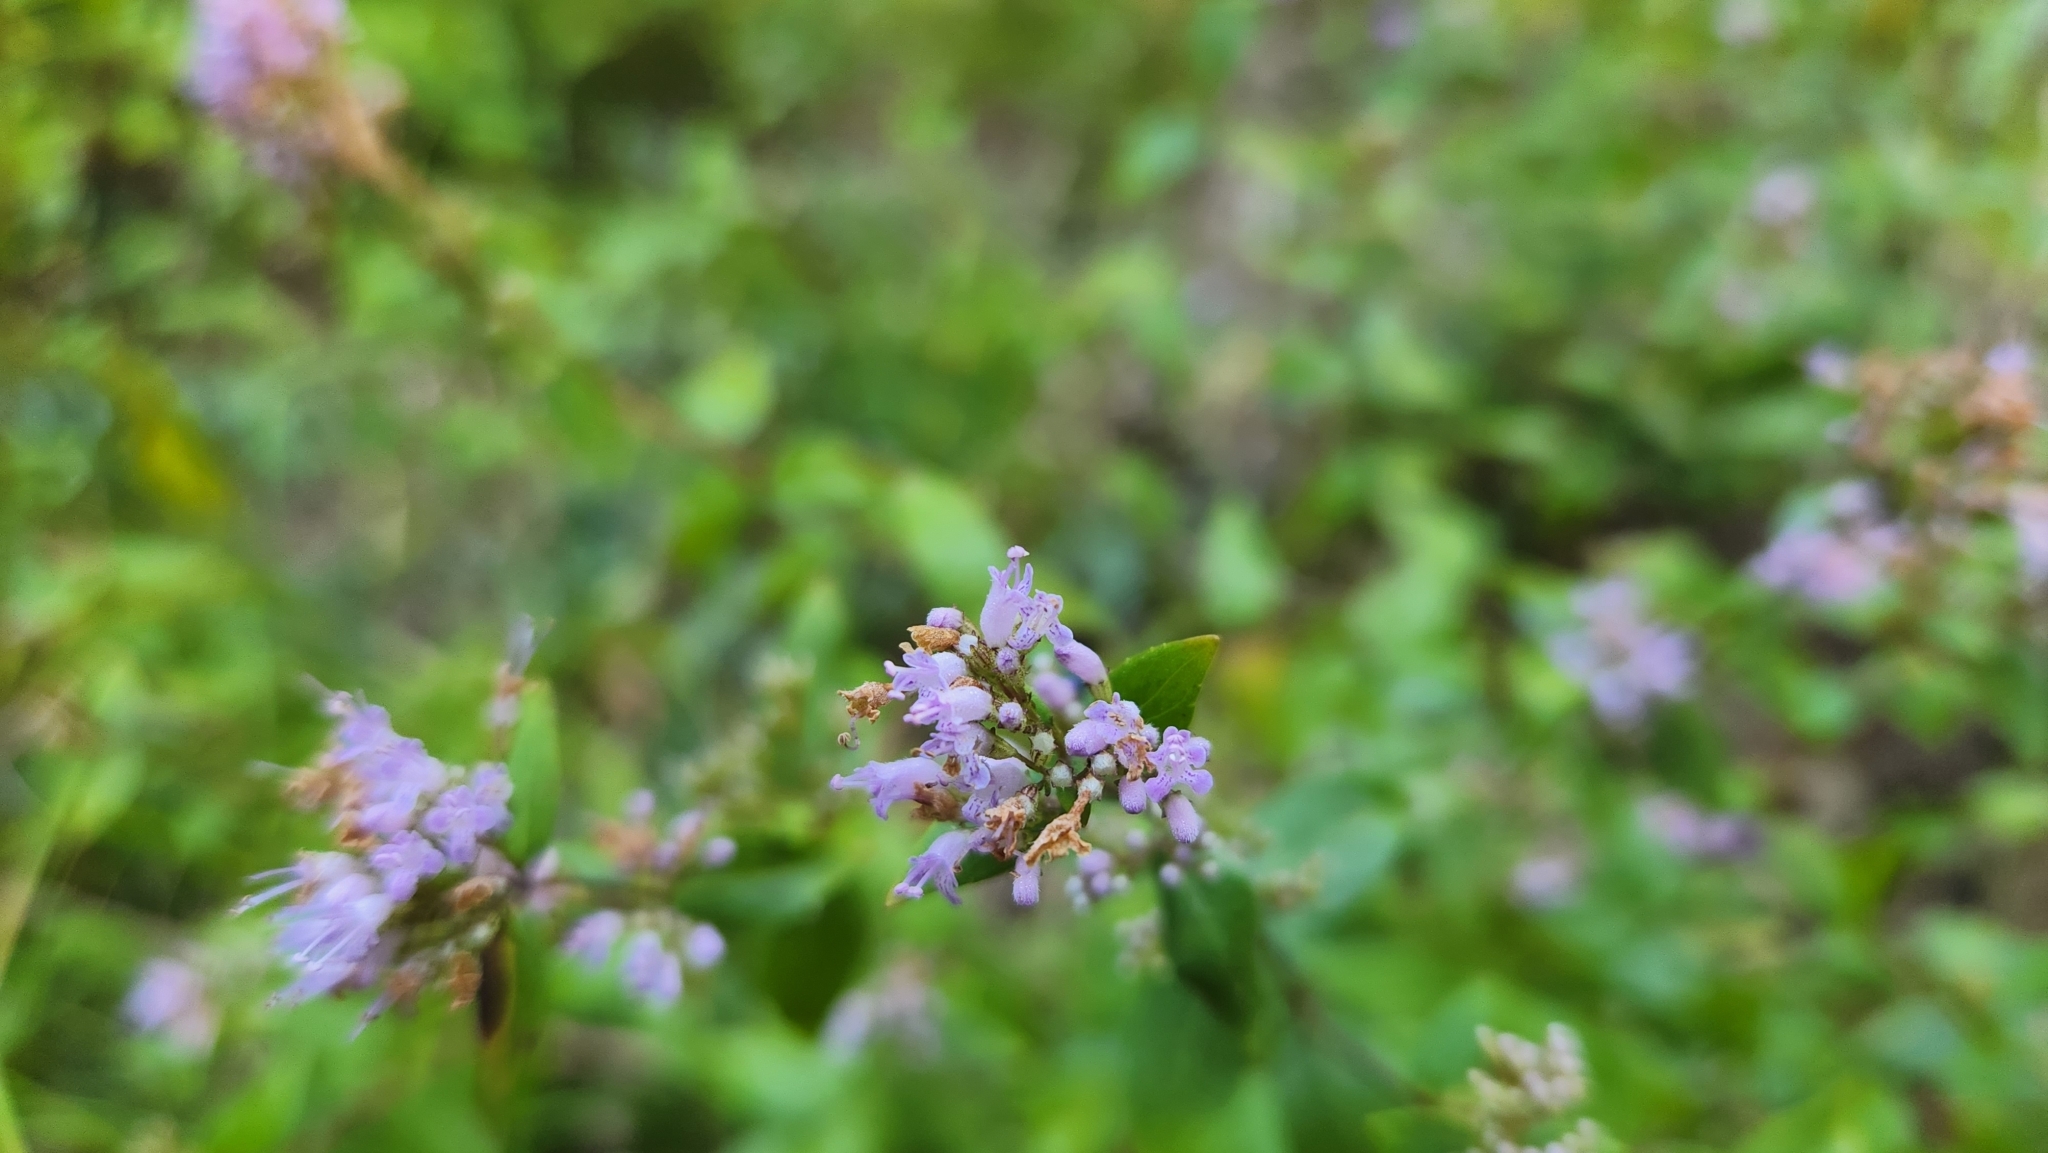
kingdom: Plantae
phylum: Tracheophyta
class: Magnoliopsida
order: Lamiales
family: Lamiaceae
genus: Cunila
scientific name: Cunila origanoides
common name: American dittany
